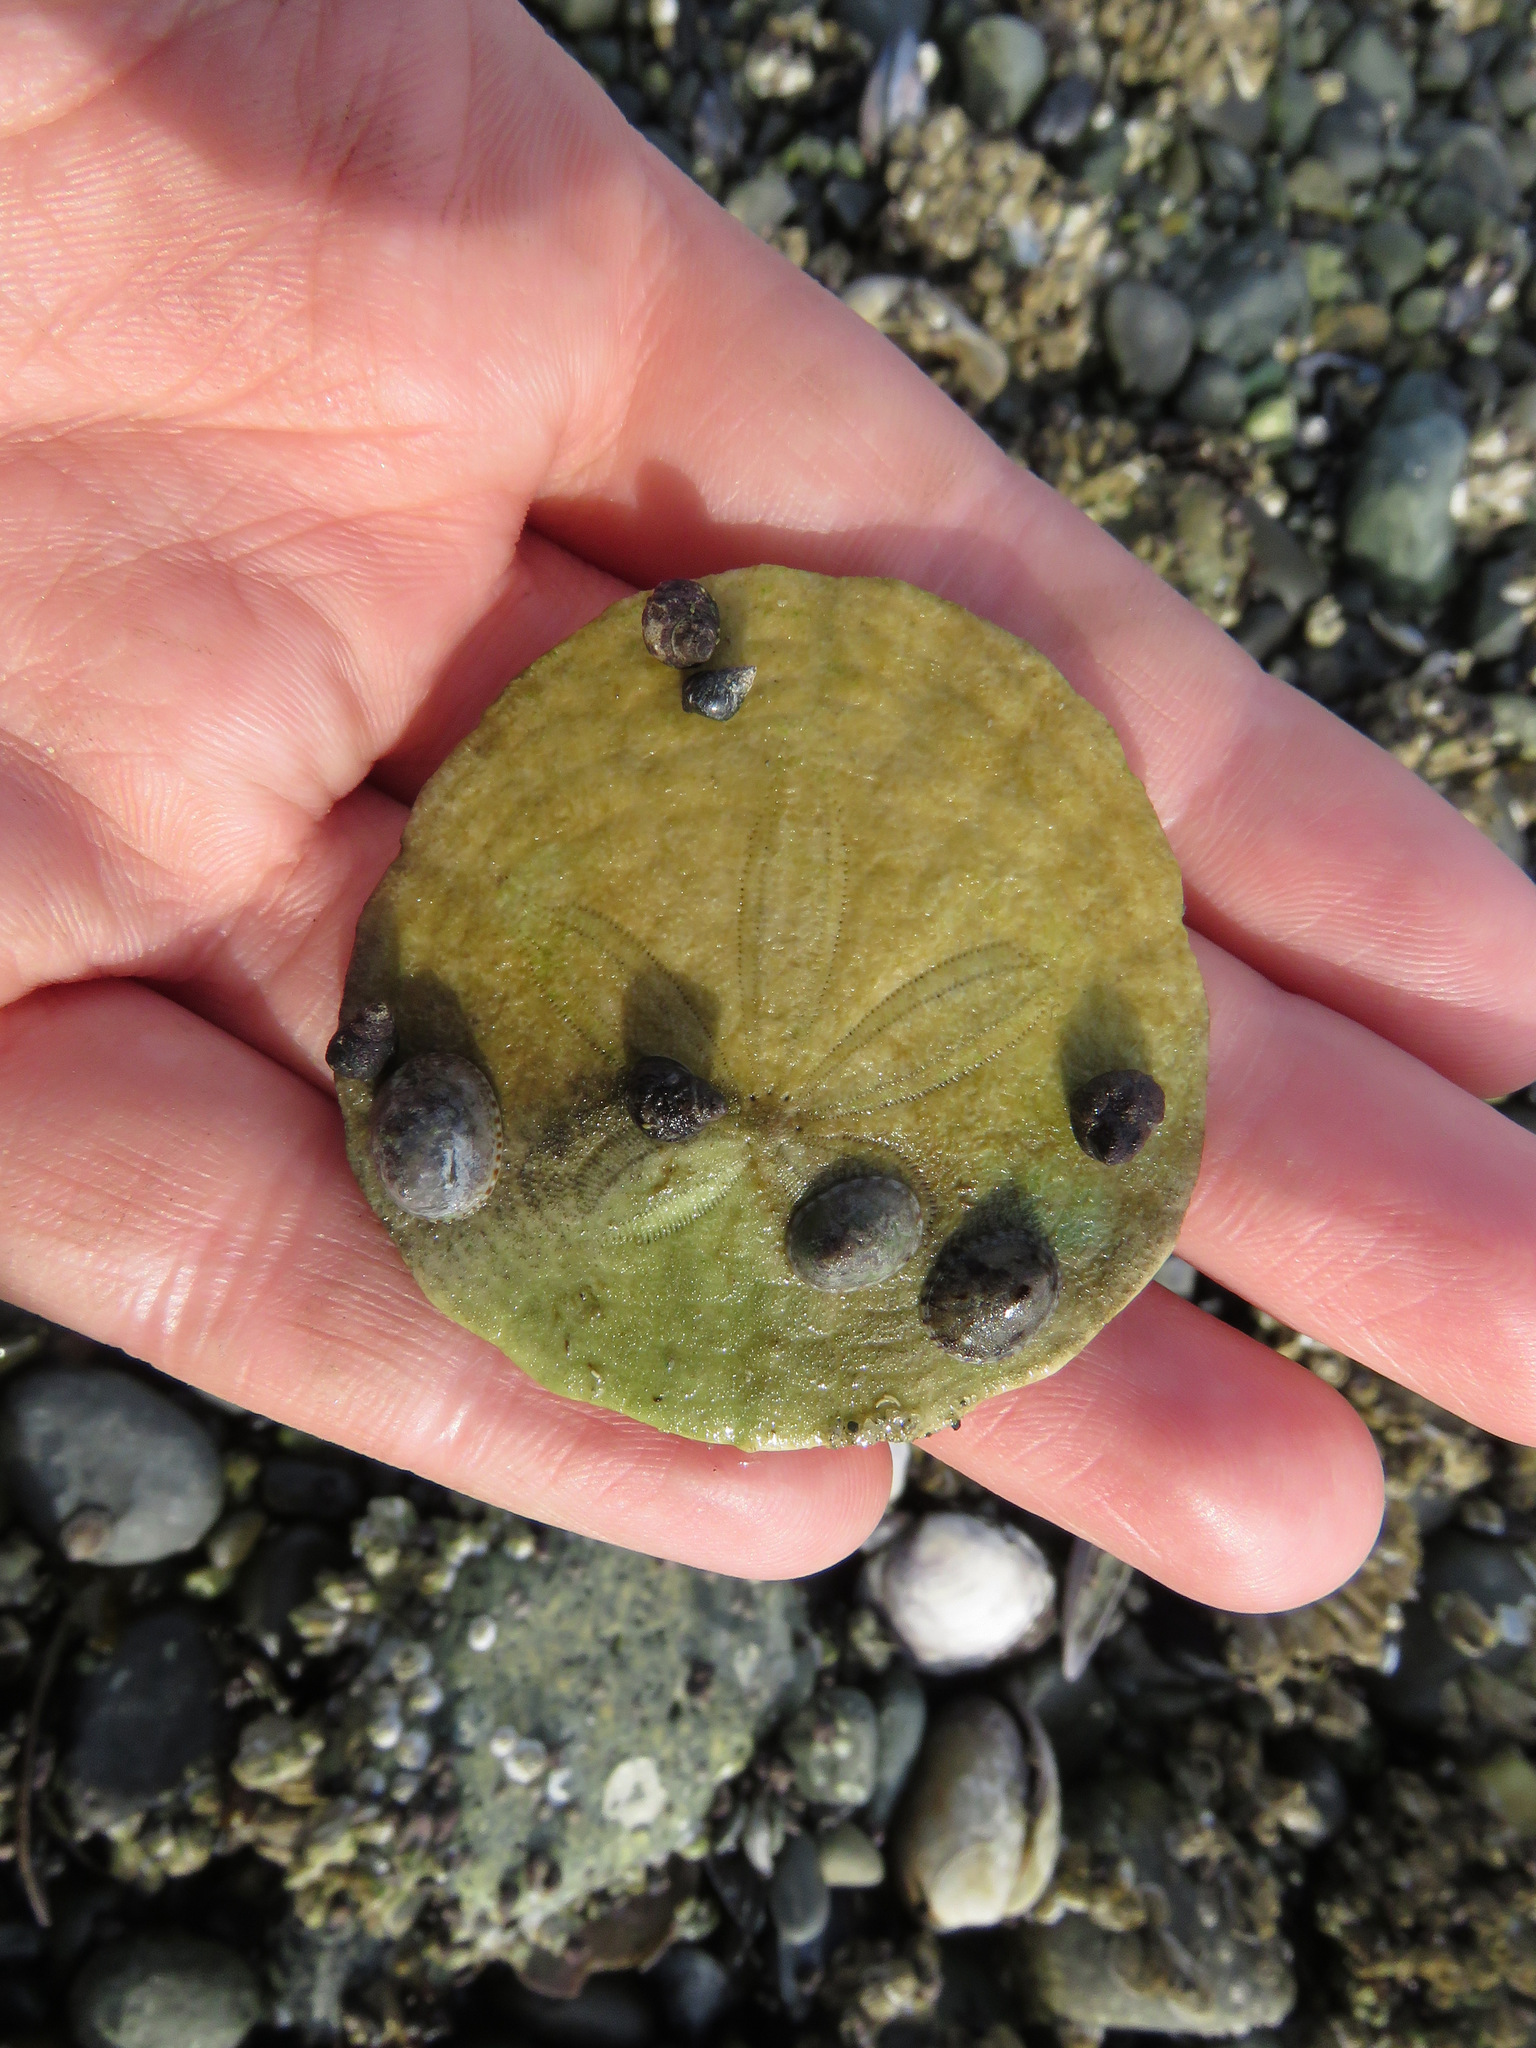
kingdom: Animalia
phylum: Echinodermata
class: Echinoidea
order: Echinolampadacea
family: Dendrasteridae
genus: Dendraster
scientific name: Dendraster excentricus
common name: Eccentric sand dollar sea urchin
